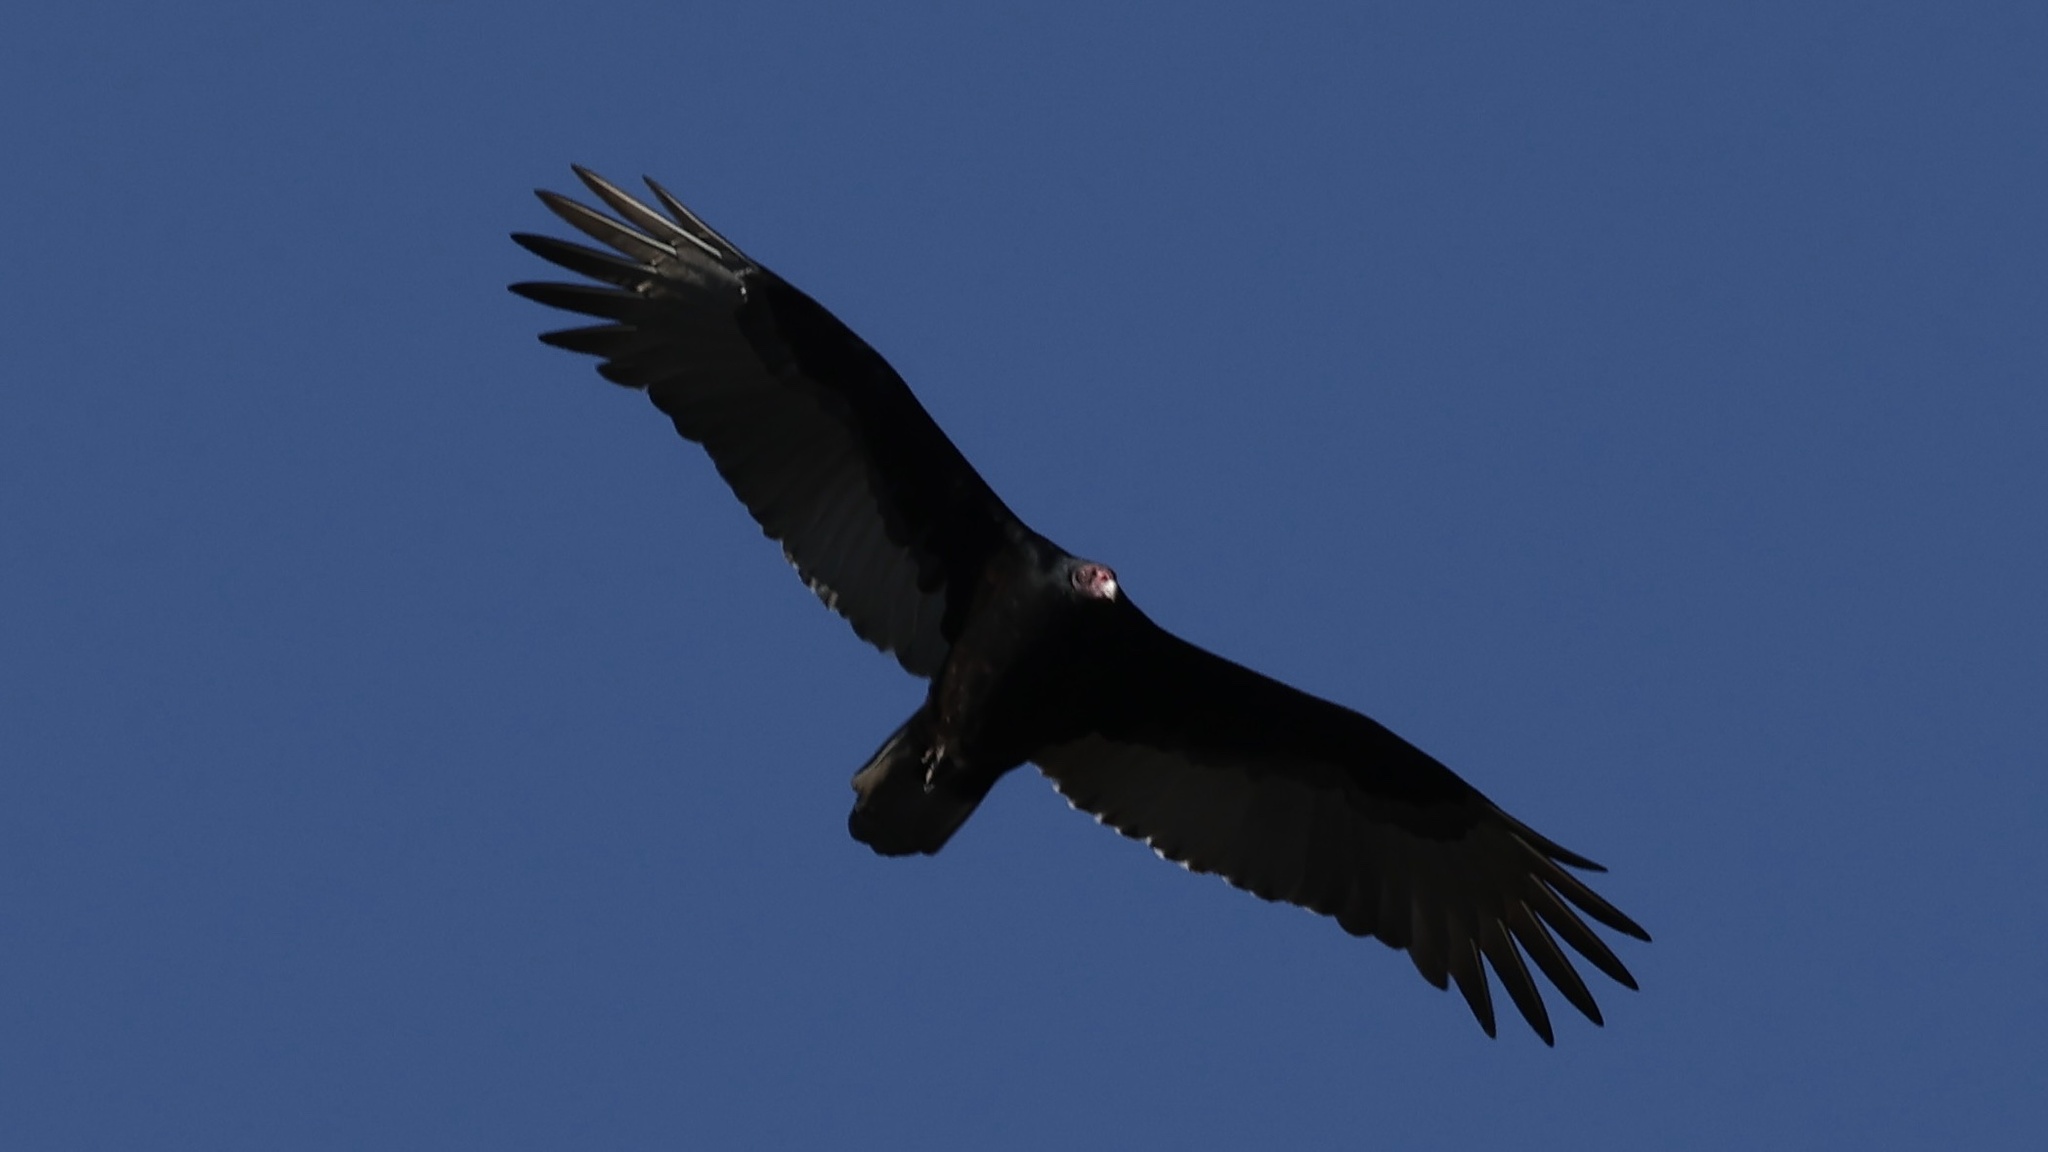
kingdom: Animalia
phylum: Chordata
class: Aves
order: Accipitriformes
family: Cathartidae
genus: Cathartes
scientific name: Cathartes aura
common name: Turkey vulture
